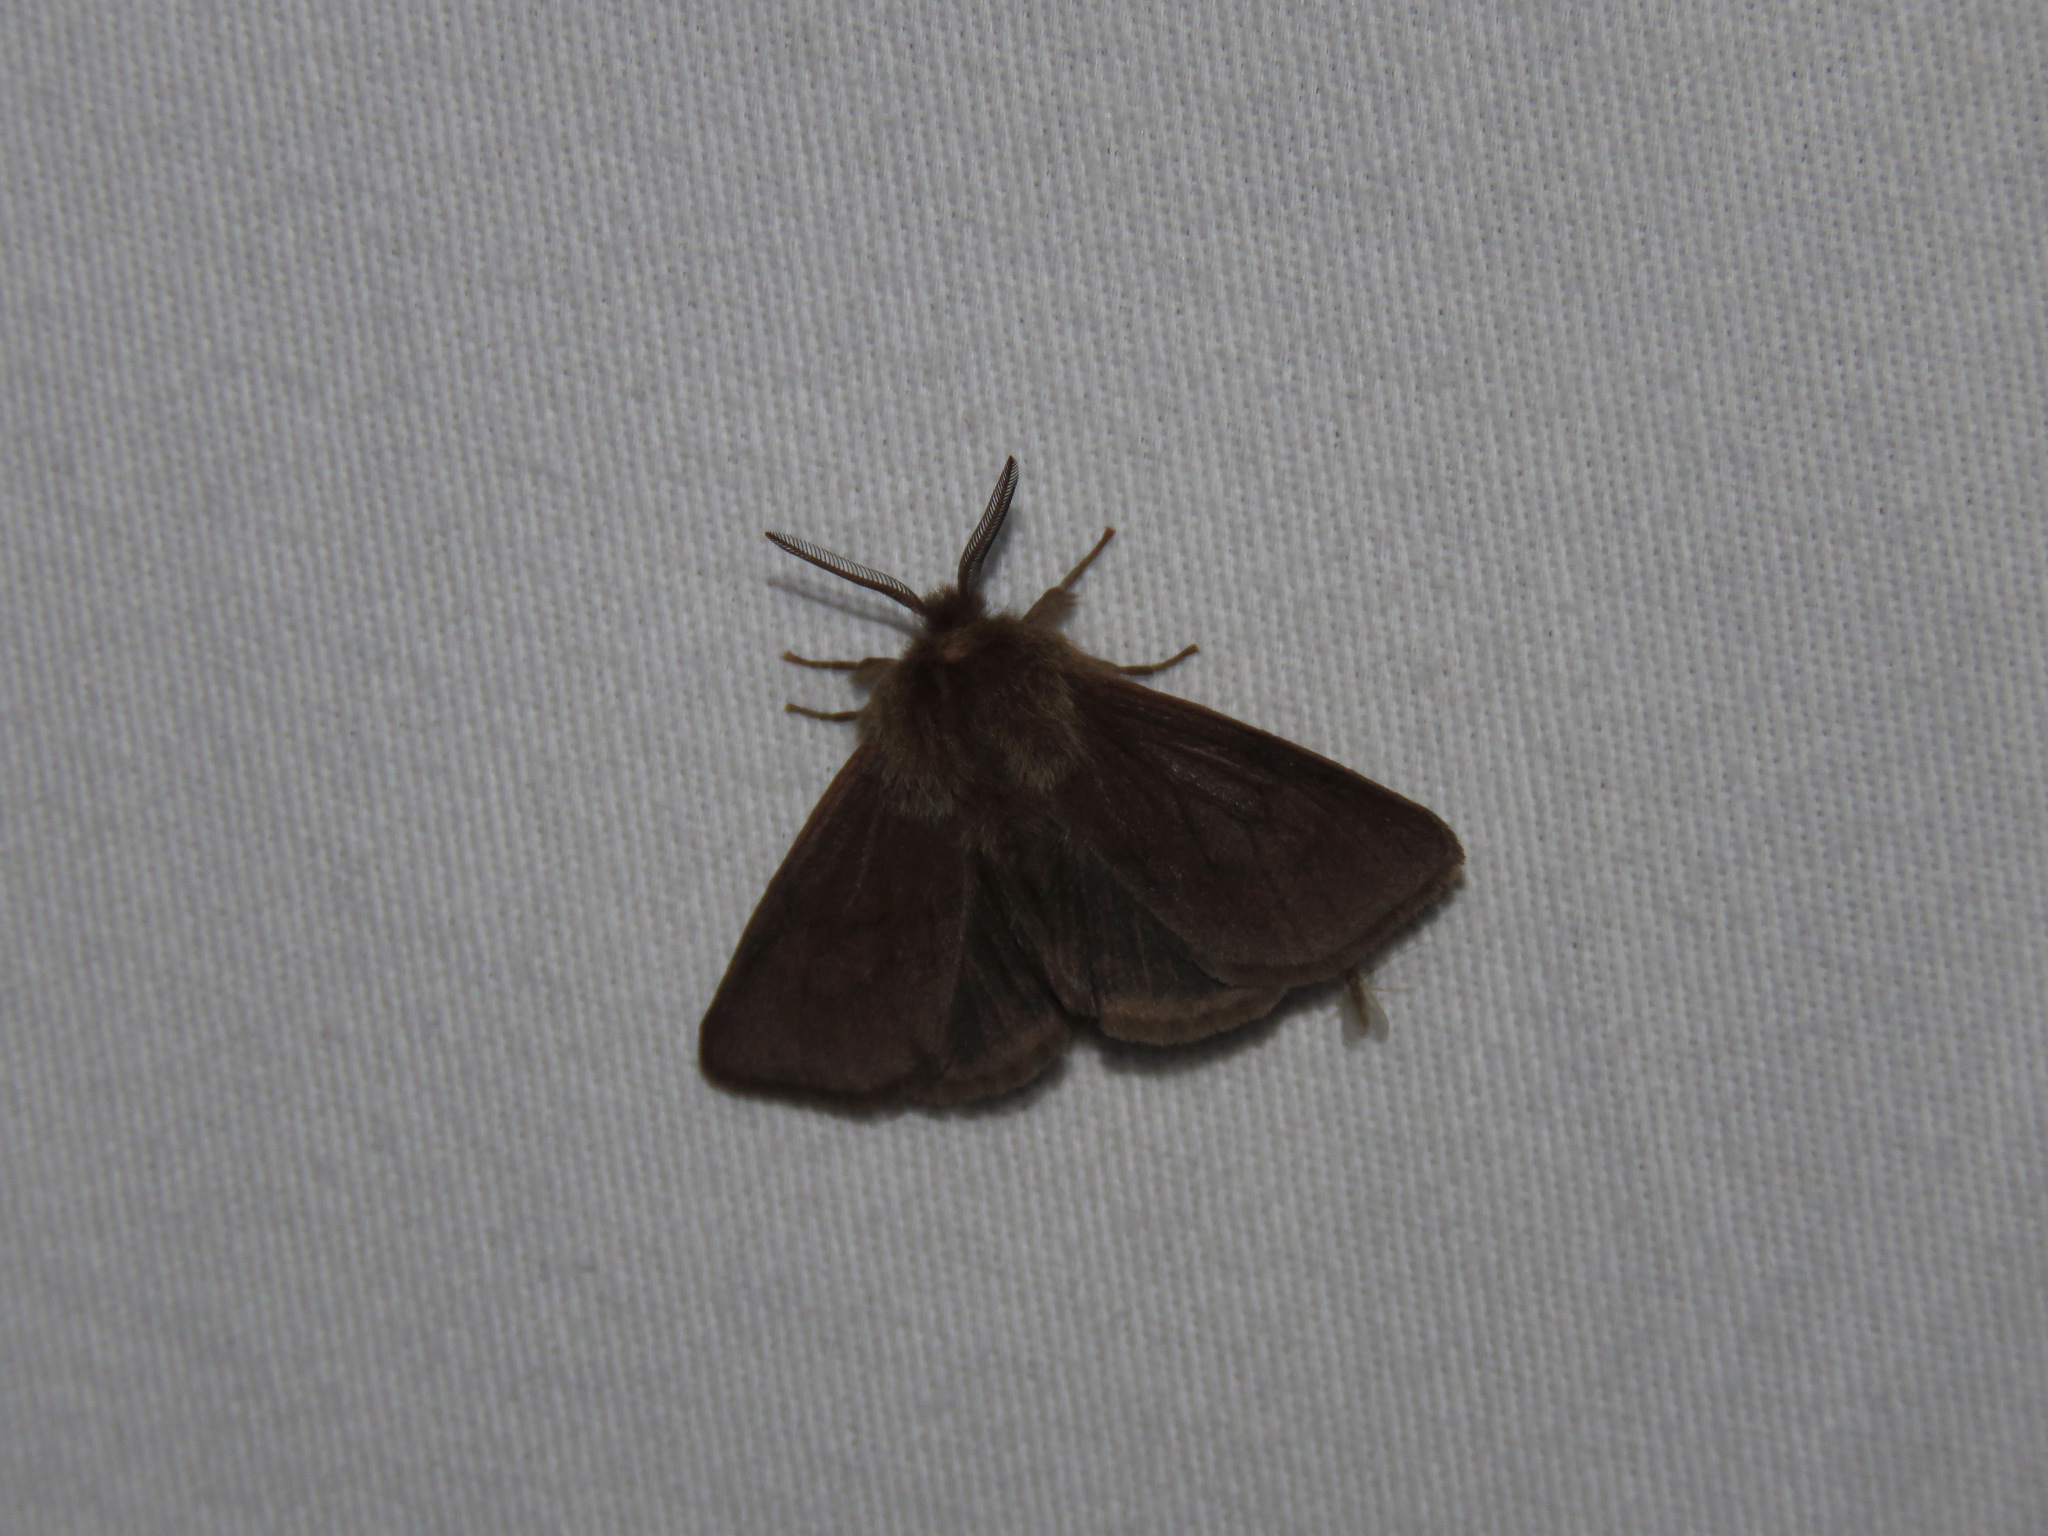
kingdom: Animalia
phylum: Arthropoda
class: Insecta
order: Lepidoptera
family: Erebidae
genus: Spilosoma
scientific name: Spilosoma vagans
